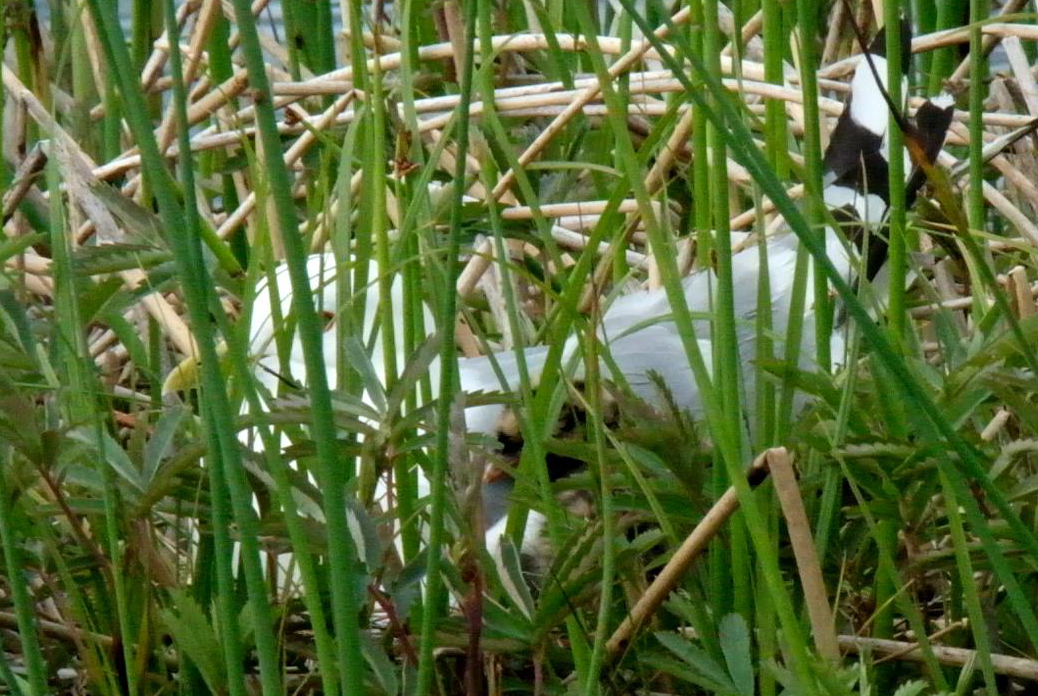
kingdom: Animalia
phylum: Chordata
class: Aves
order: Charadriiformes
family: Laridae
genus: Larus
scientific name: Larus brachyrhynchus
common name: Short-billed gull
